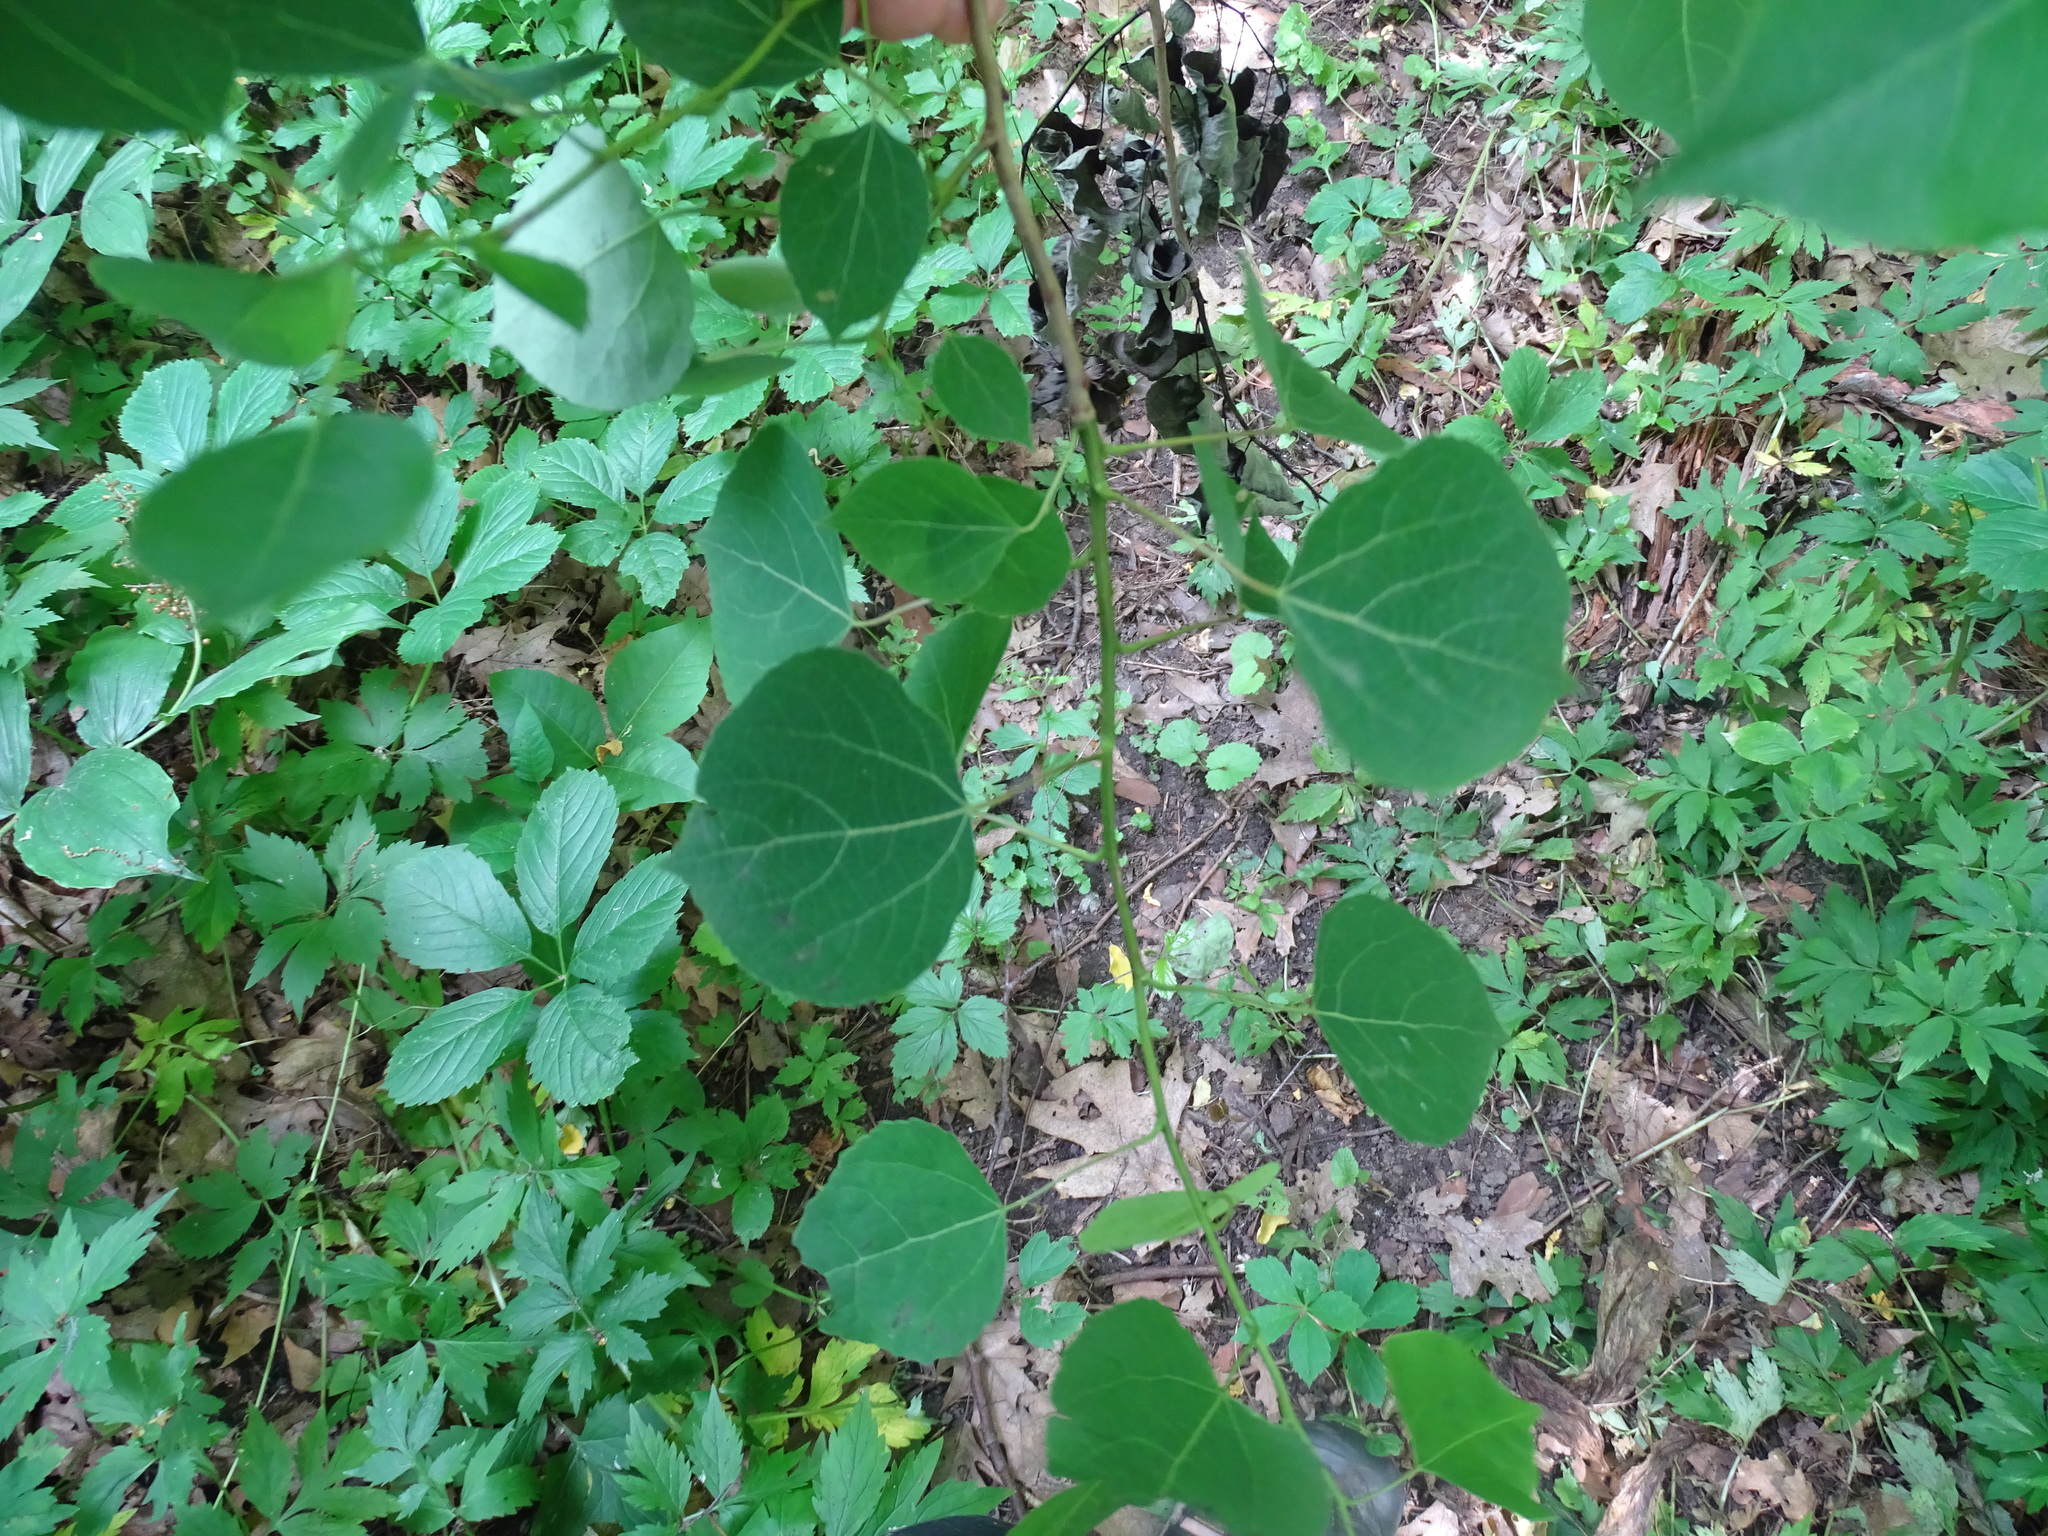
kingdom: Plantae
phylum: Tracheophyta
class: Magnoliopsida
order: Malpighiales
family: Salicaceae
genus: Populus
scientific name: Populus tremuloides
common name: Quaking aspen
